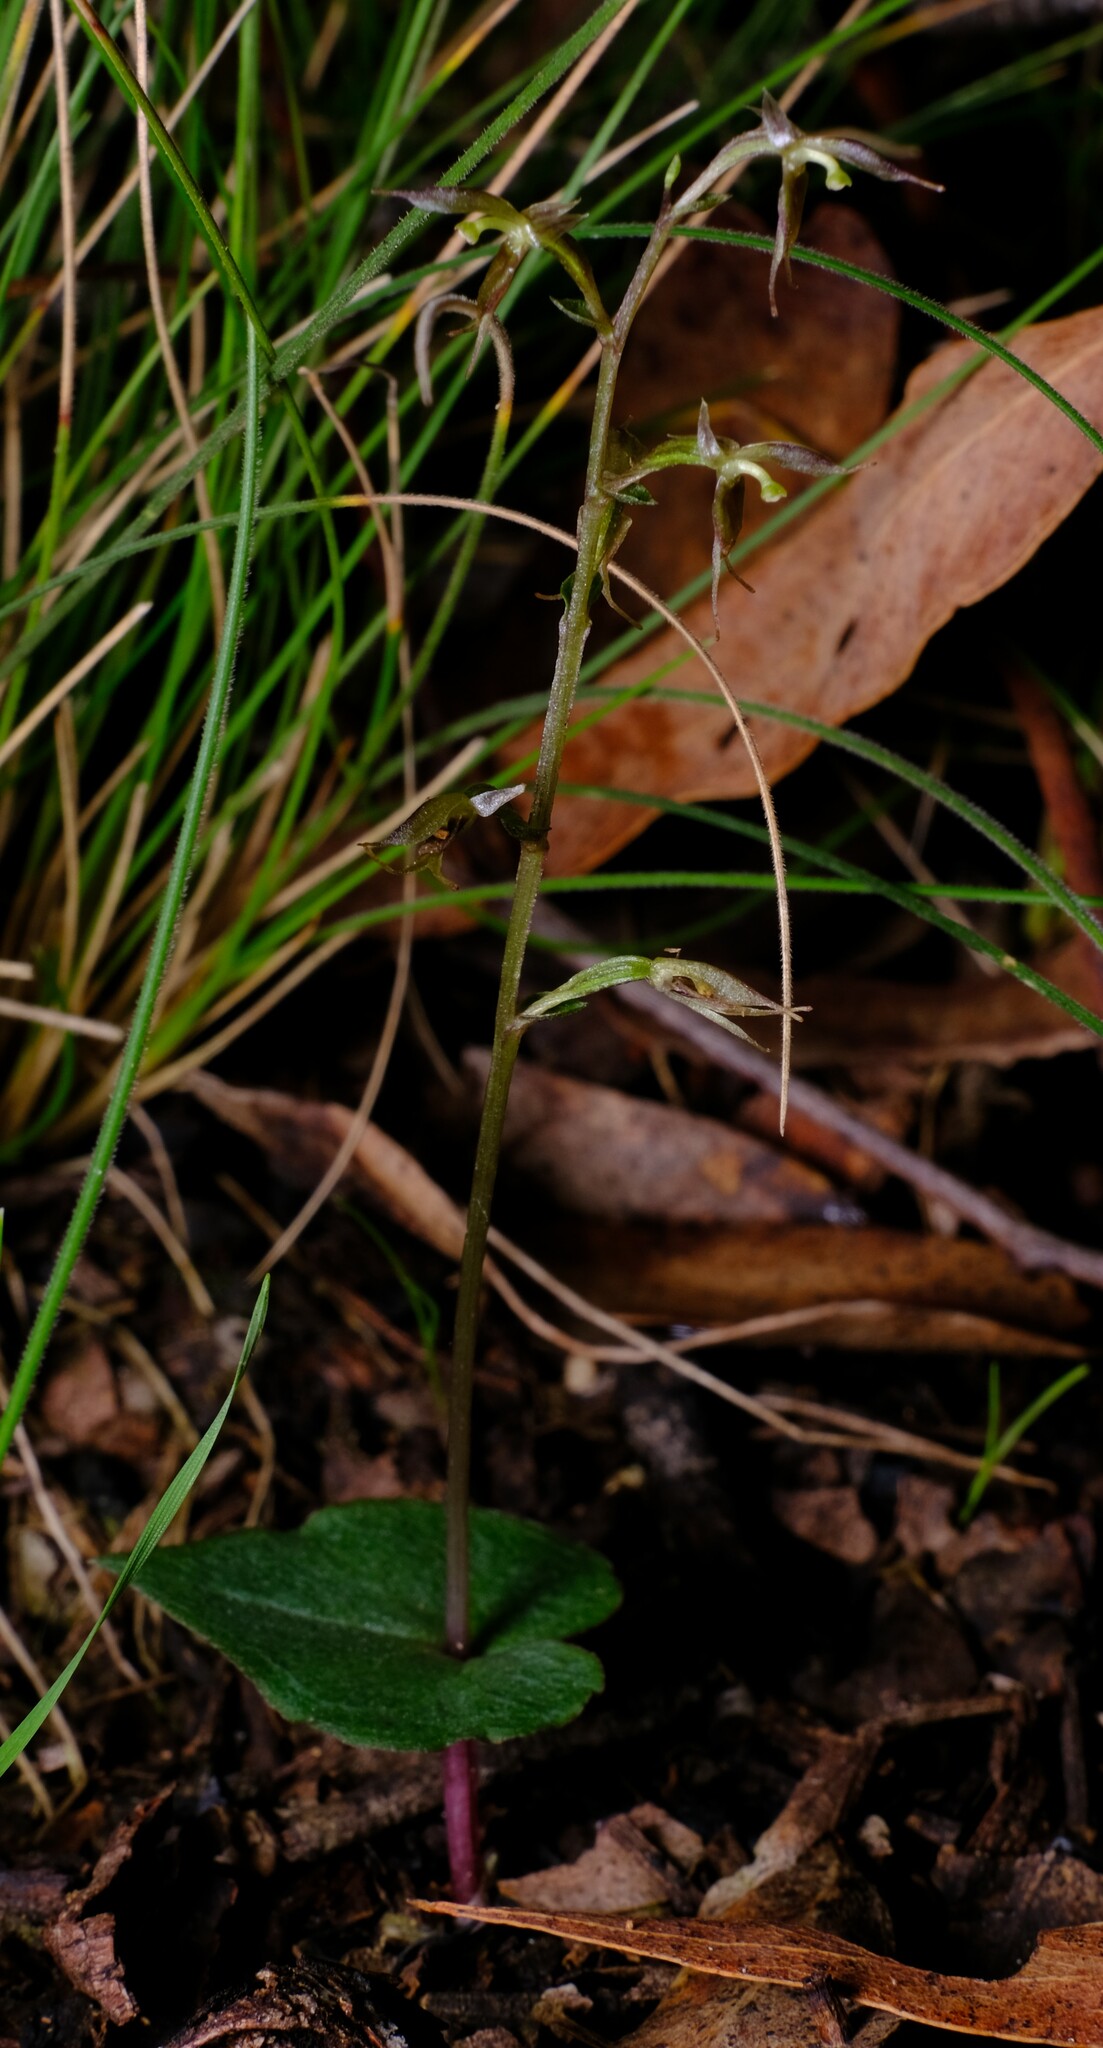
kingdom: Plantae
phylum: Tracheophyta
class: Liliopsida
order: Asparagales
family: Orchidaceae
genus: Acianthus
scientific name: Acianthus pusillus
